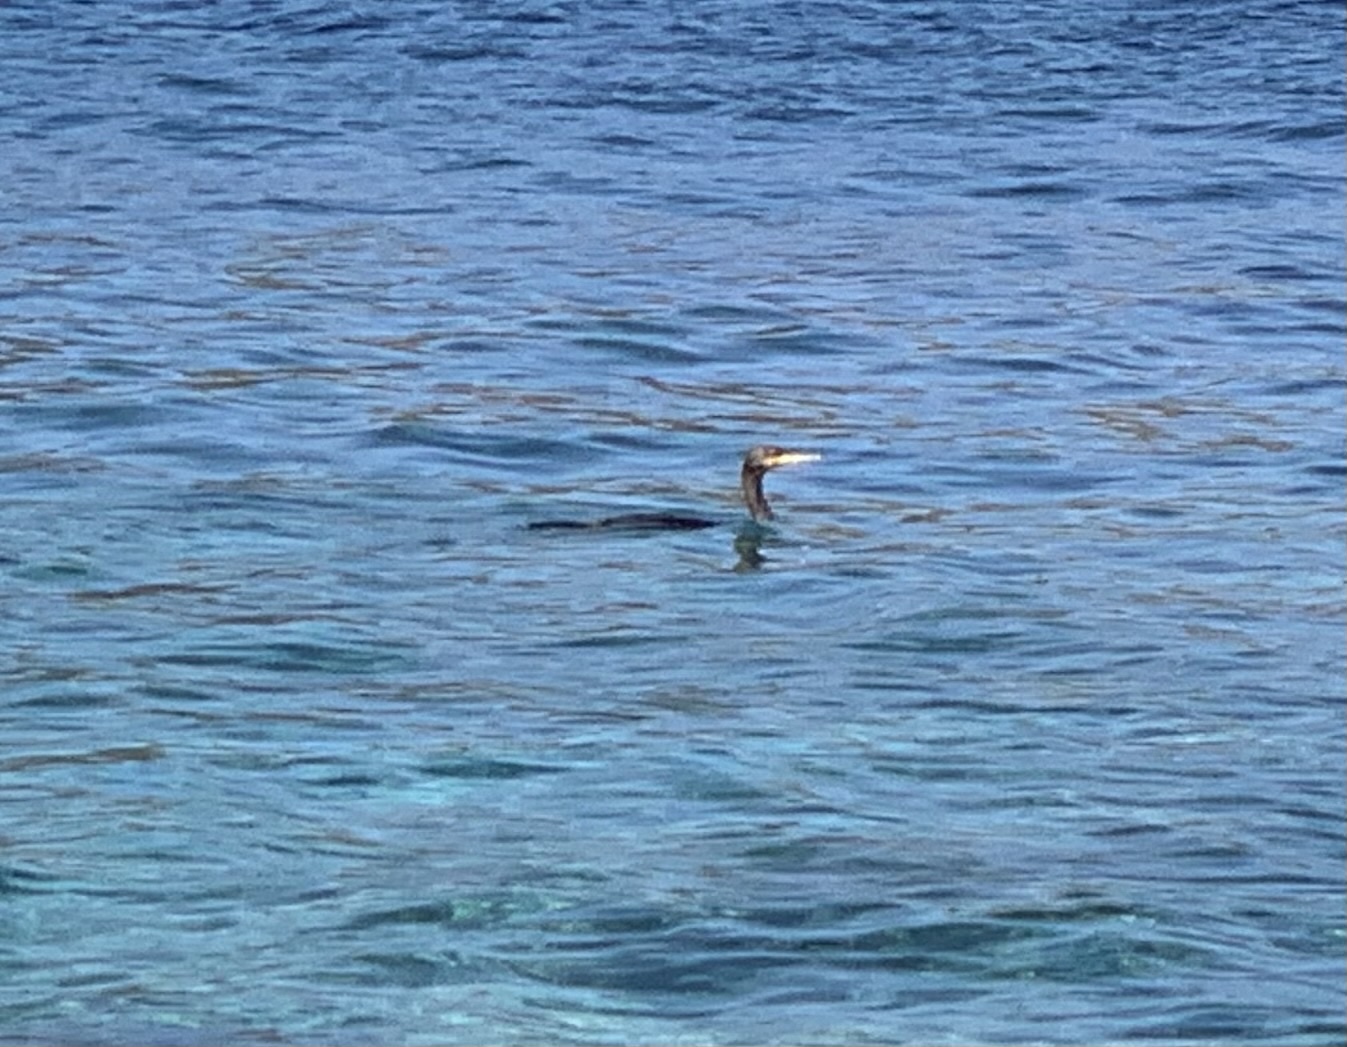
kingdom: Animalia
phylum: Chordata
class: Aves
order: Suliformes
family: Phalacrocoracidae
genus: Phalacrocorax
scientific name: Phalacrocorax aristotelis
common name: European shag
